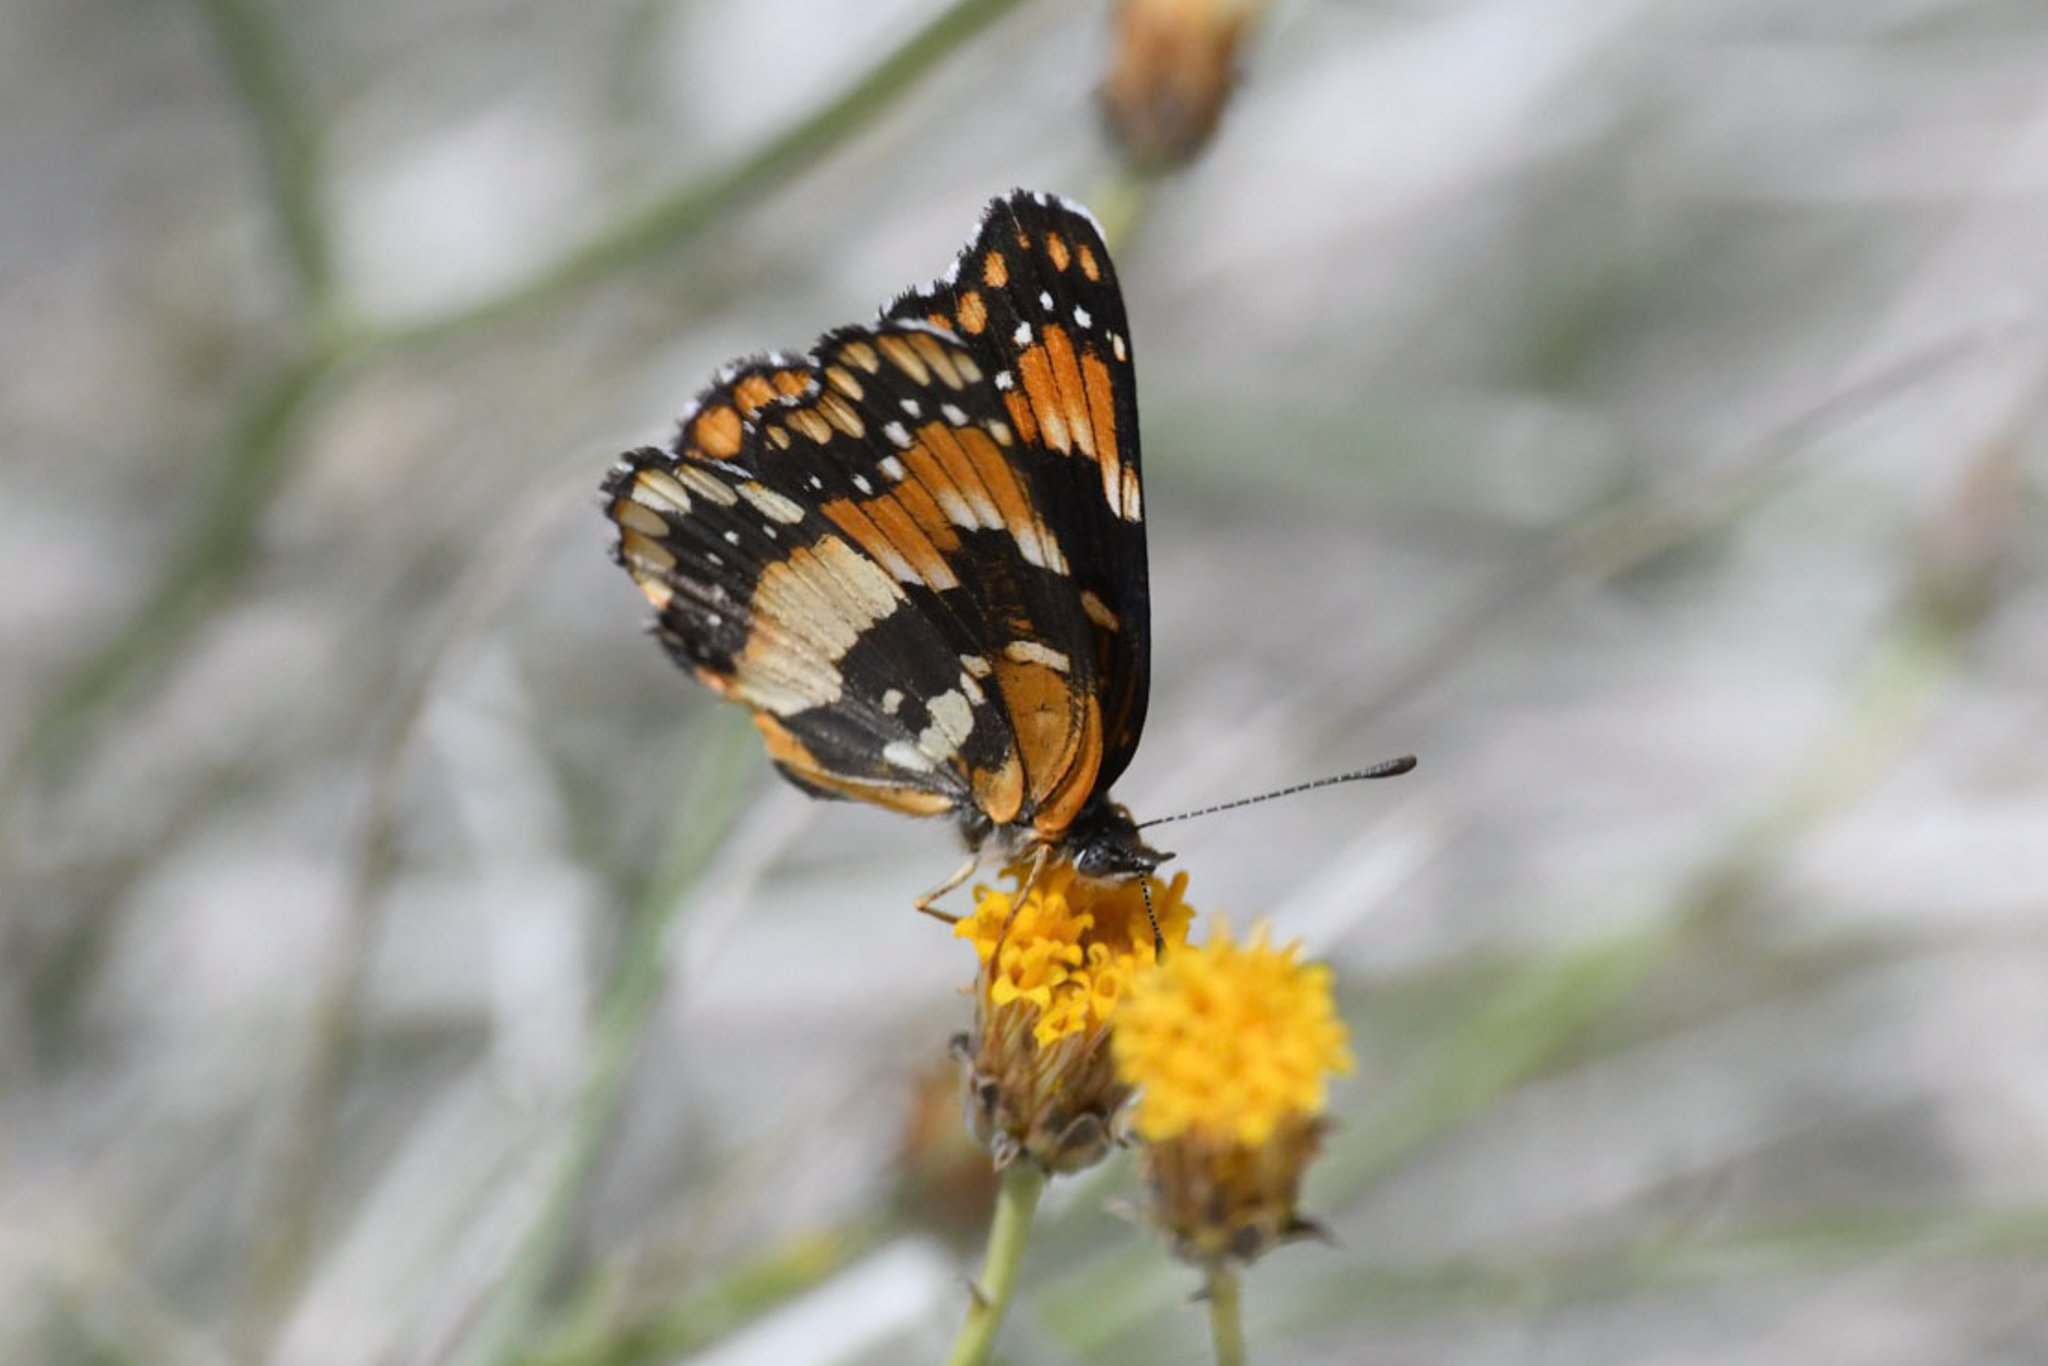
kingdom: Animalia
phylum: Arthropoda
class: Insecta
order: Lepidoptera
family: Nymphalidae
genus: Chlosyne
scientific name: Chlosyne californica
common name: California patch
